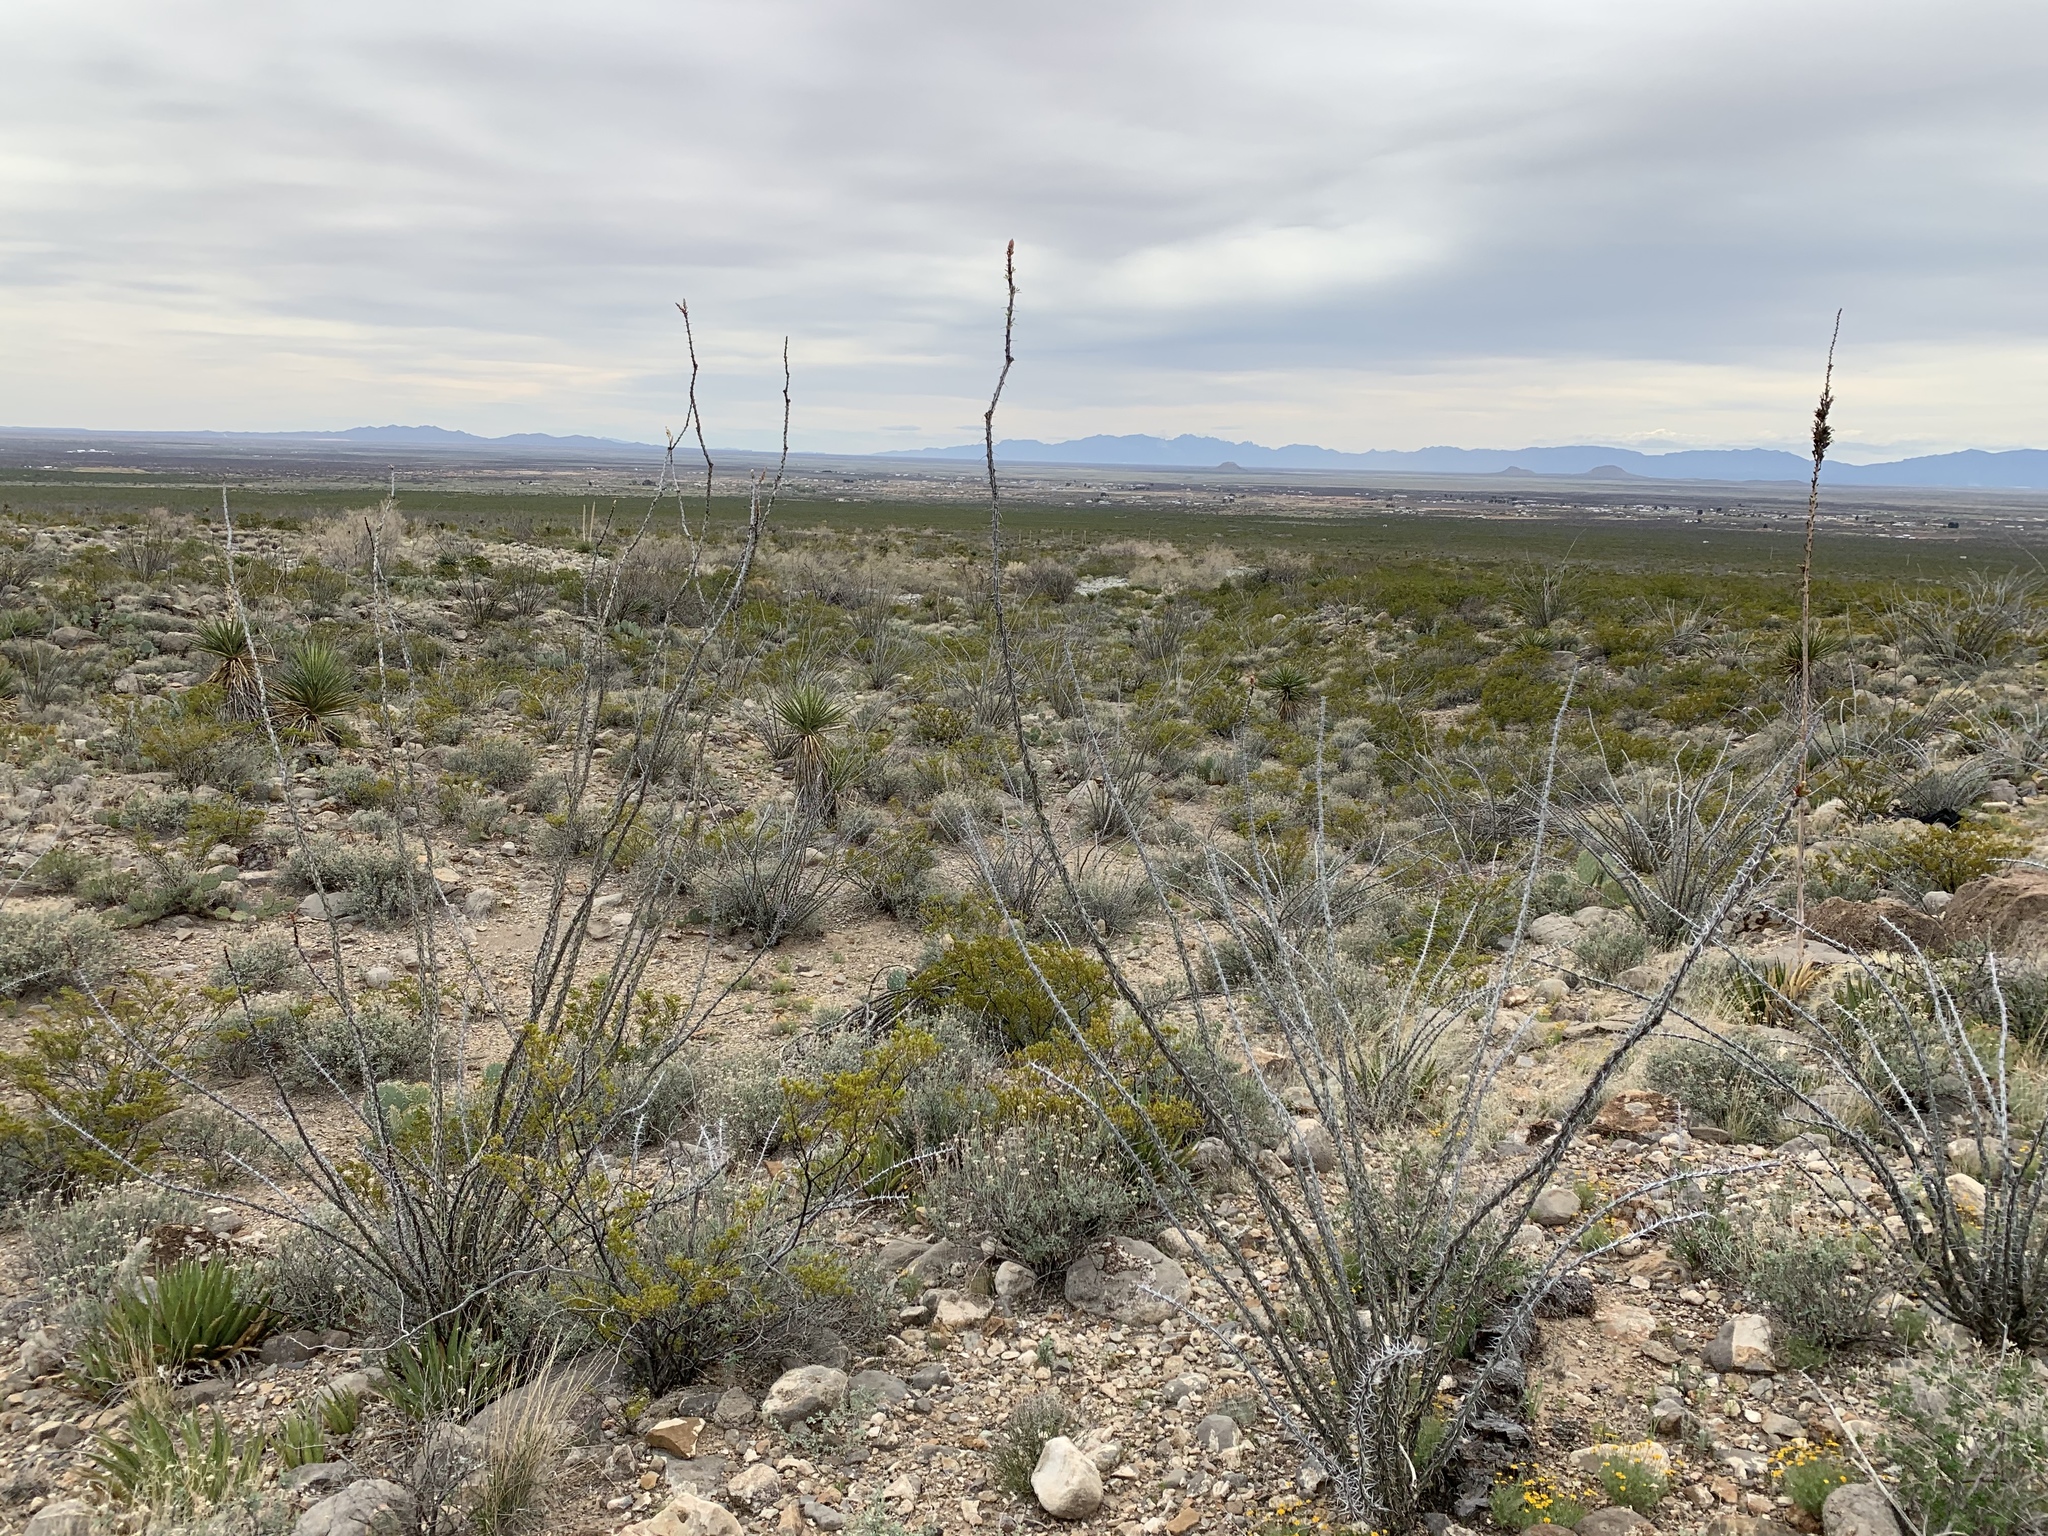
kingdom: Plantae
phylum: Tracheophyta
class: Magnoliopsida
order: Ericales
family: Fouquieriaceae
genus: Fouquieria
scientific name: Fouquieria splendens
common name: Vine-cactus
